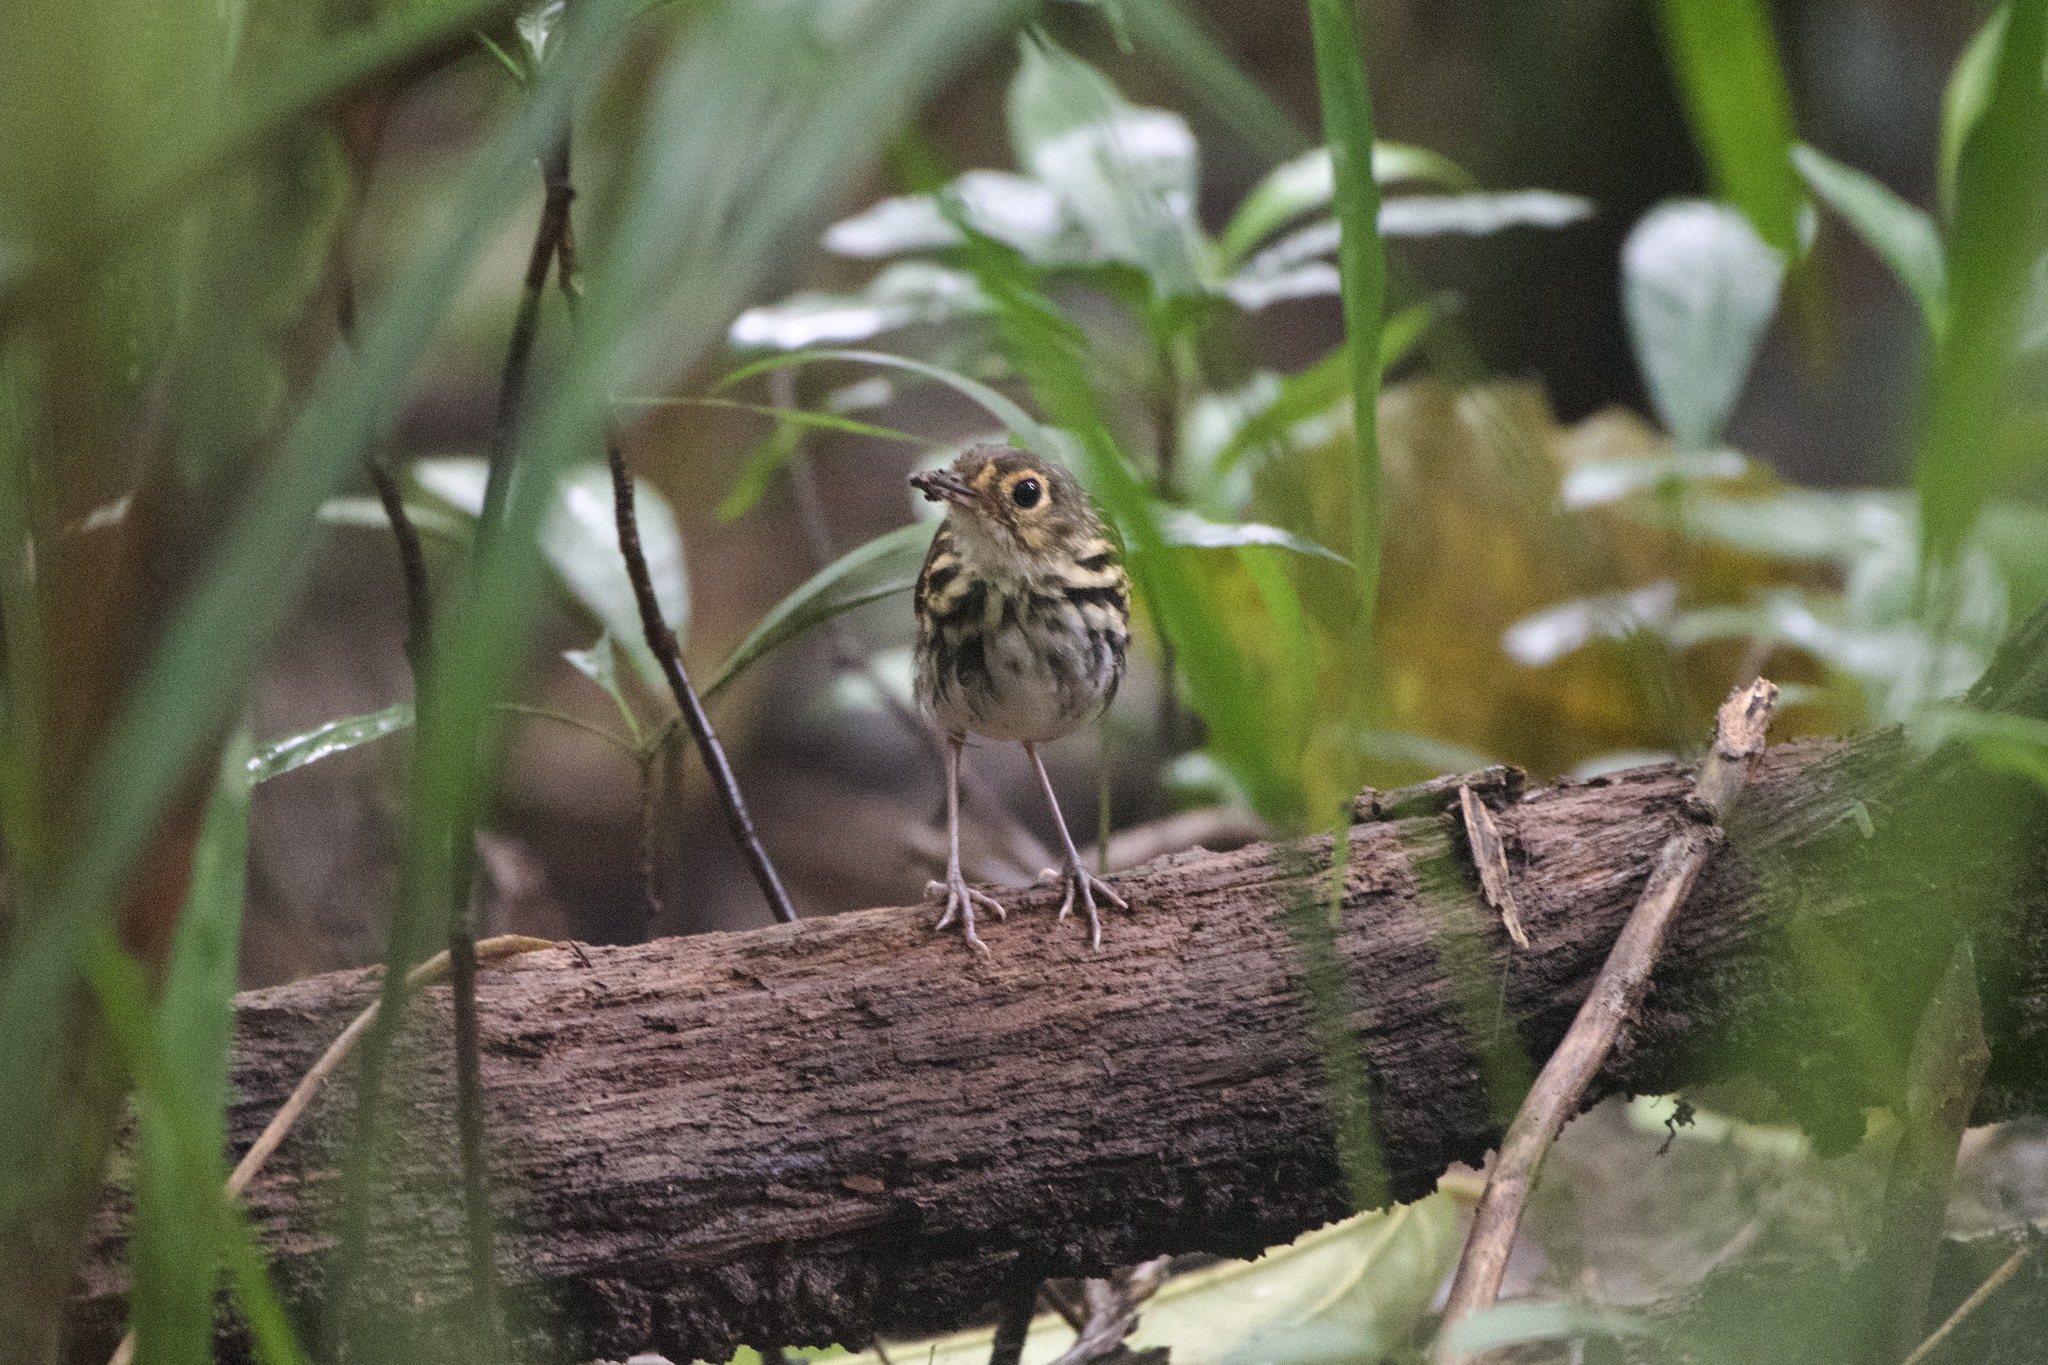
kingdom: Animalia
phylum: Chordata
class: Aves
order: Passeriformes
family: Grallariidae
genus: Hylopezus
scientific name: Hylopezus perspicillatus
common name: Streak-chested antpitta
